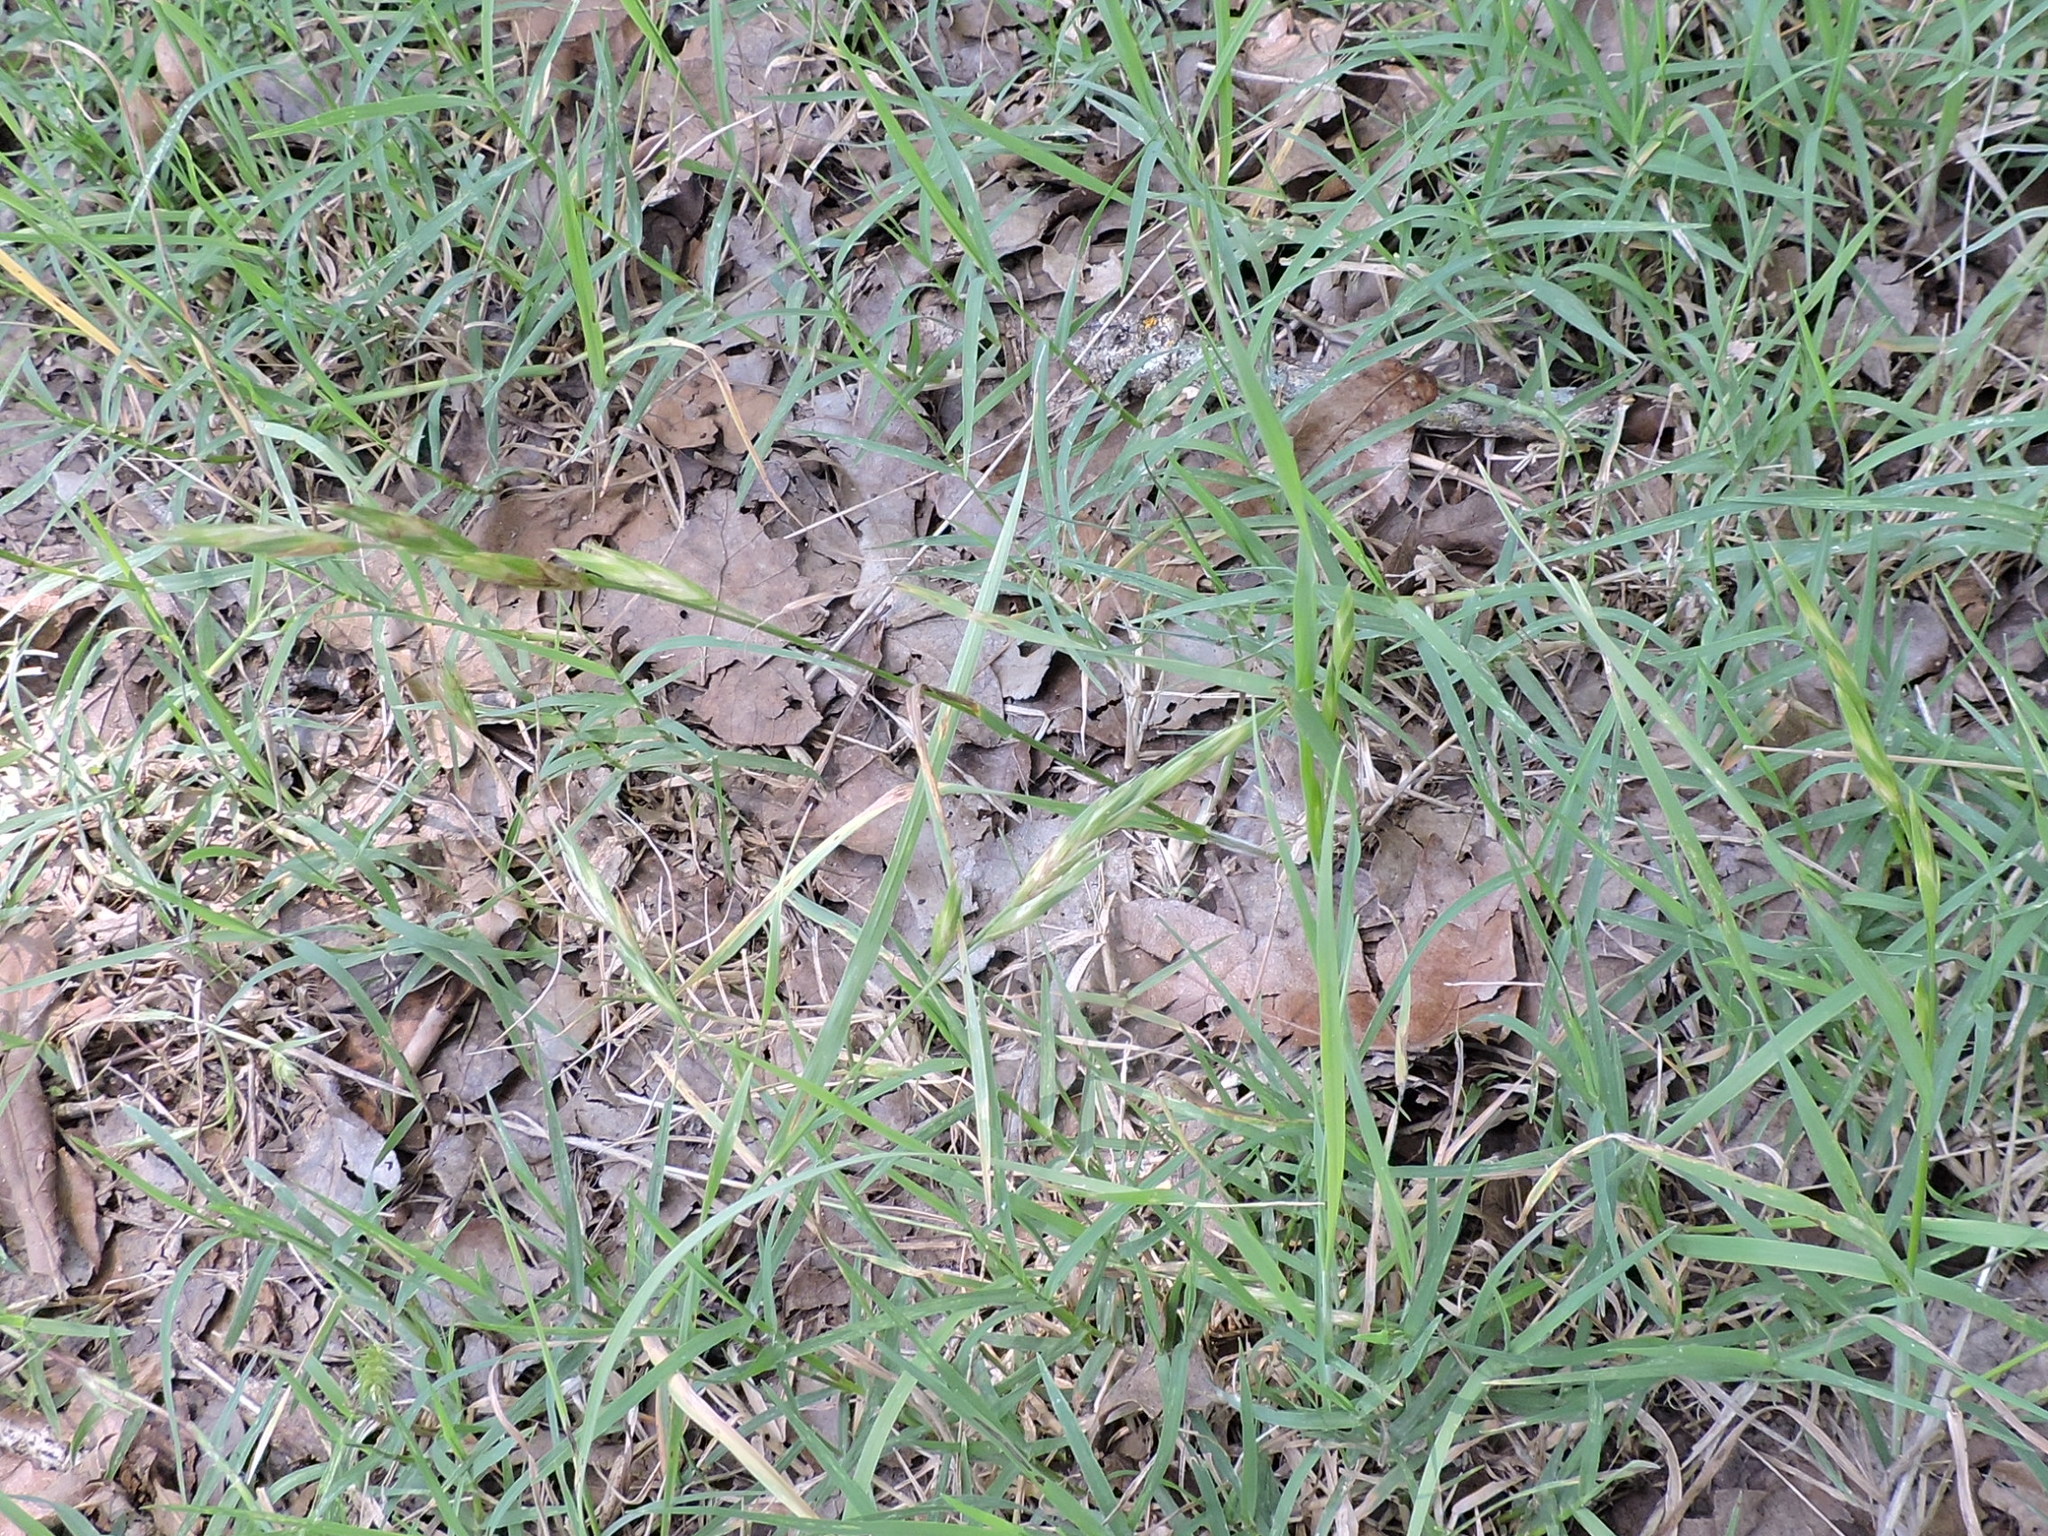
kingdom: Plantae
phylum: Tracheophyta
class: Liliopsida
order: Poales
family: Poaceae
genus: Bromus
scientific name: Bromus catharticus
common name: Rescuegrass
